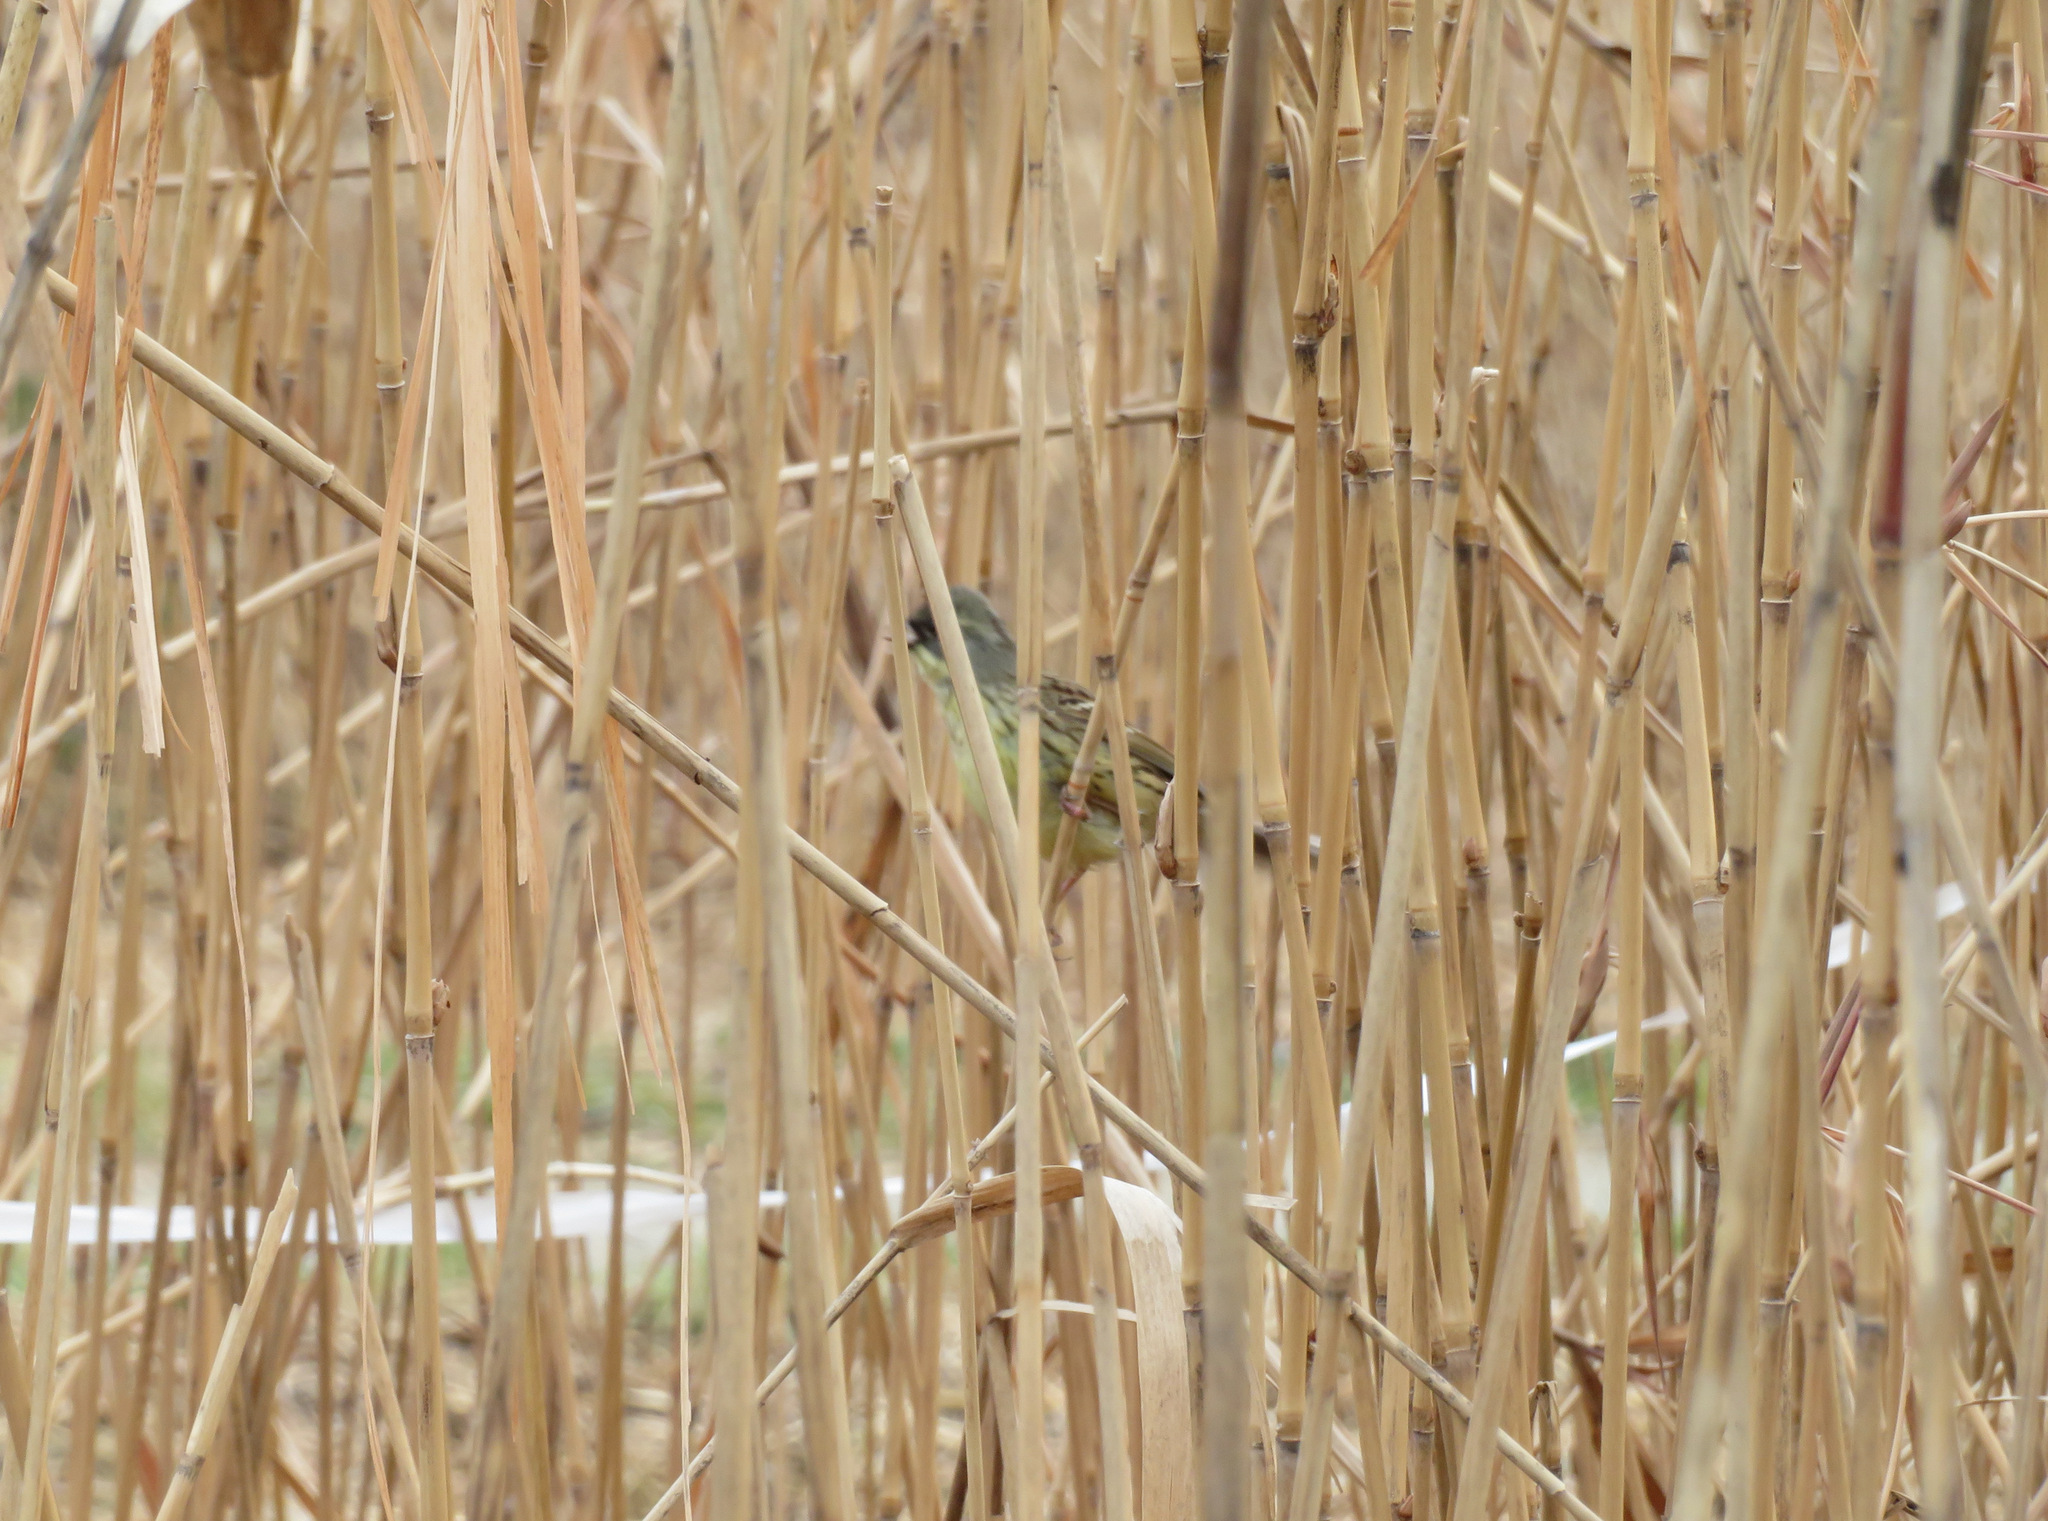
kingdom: Animalia
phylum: Chordata
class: Aves
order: Passeriformes
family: Emberizidae
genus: Emberiza
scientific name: Emberiza personata
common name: Masked bunting
